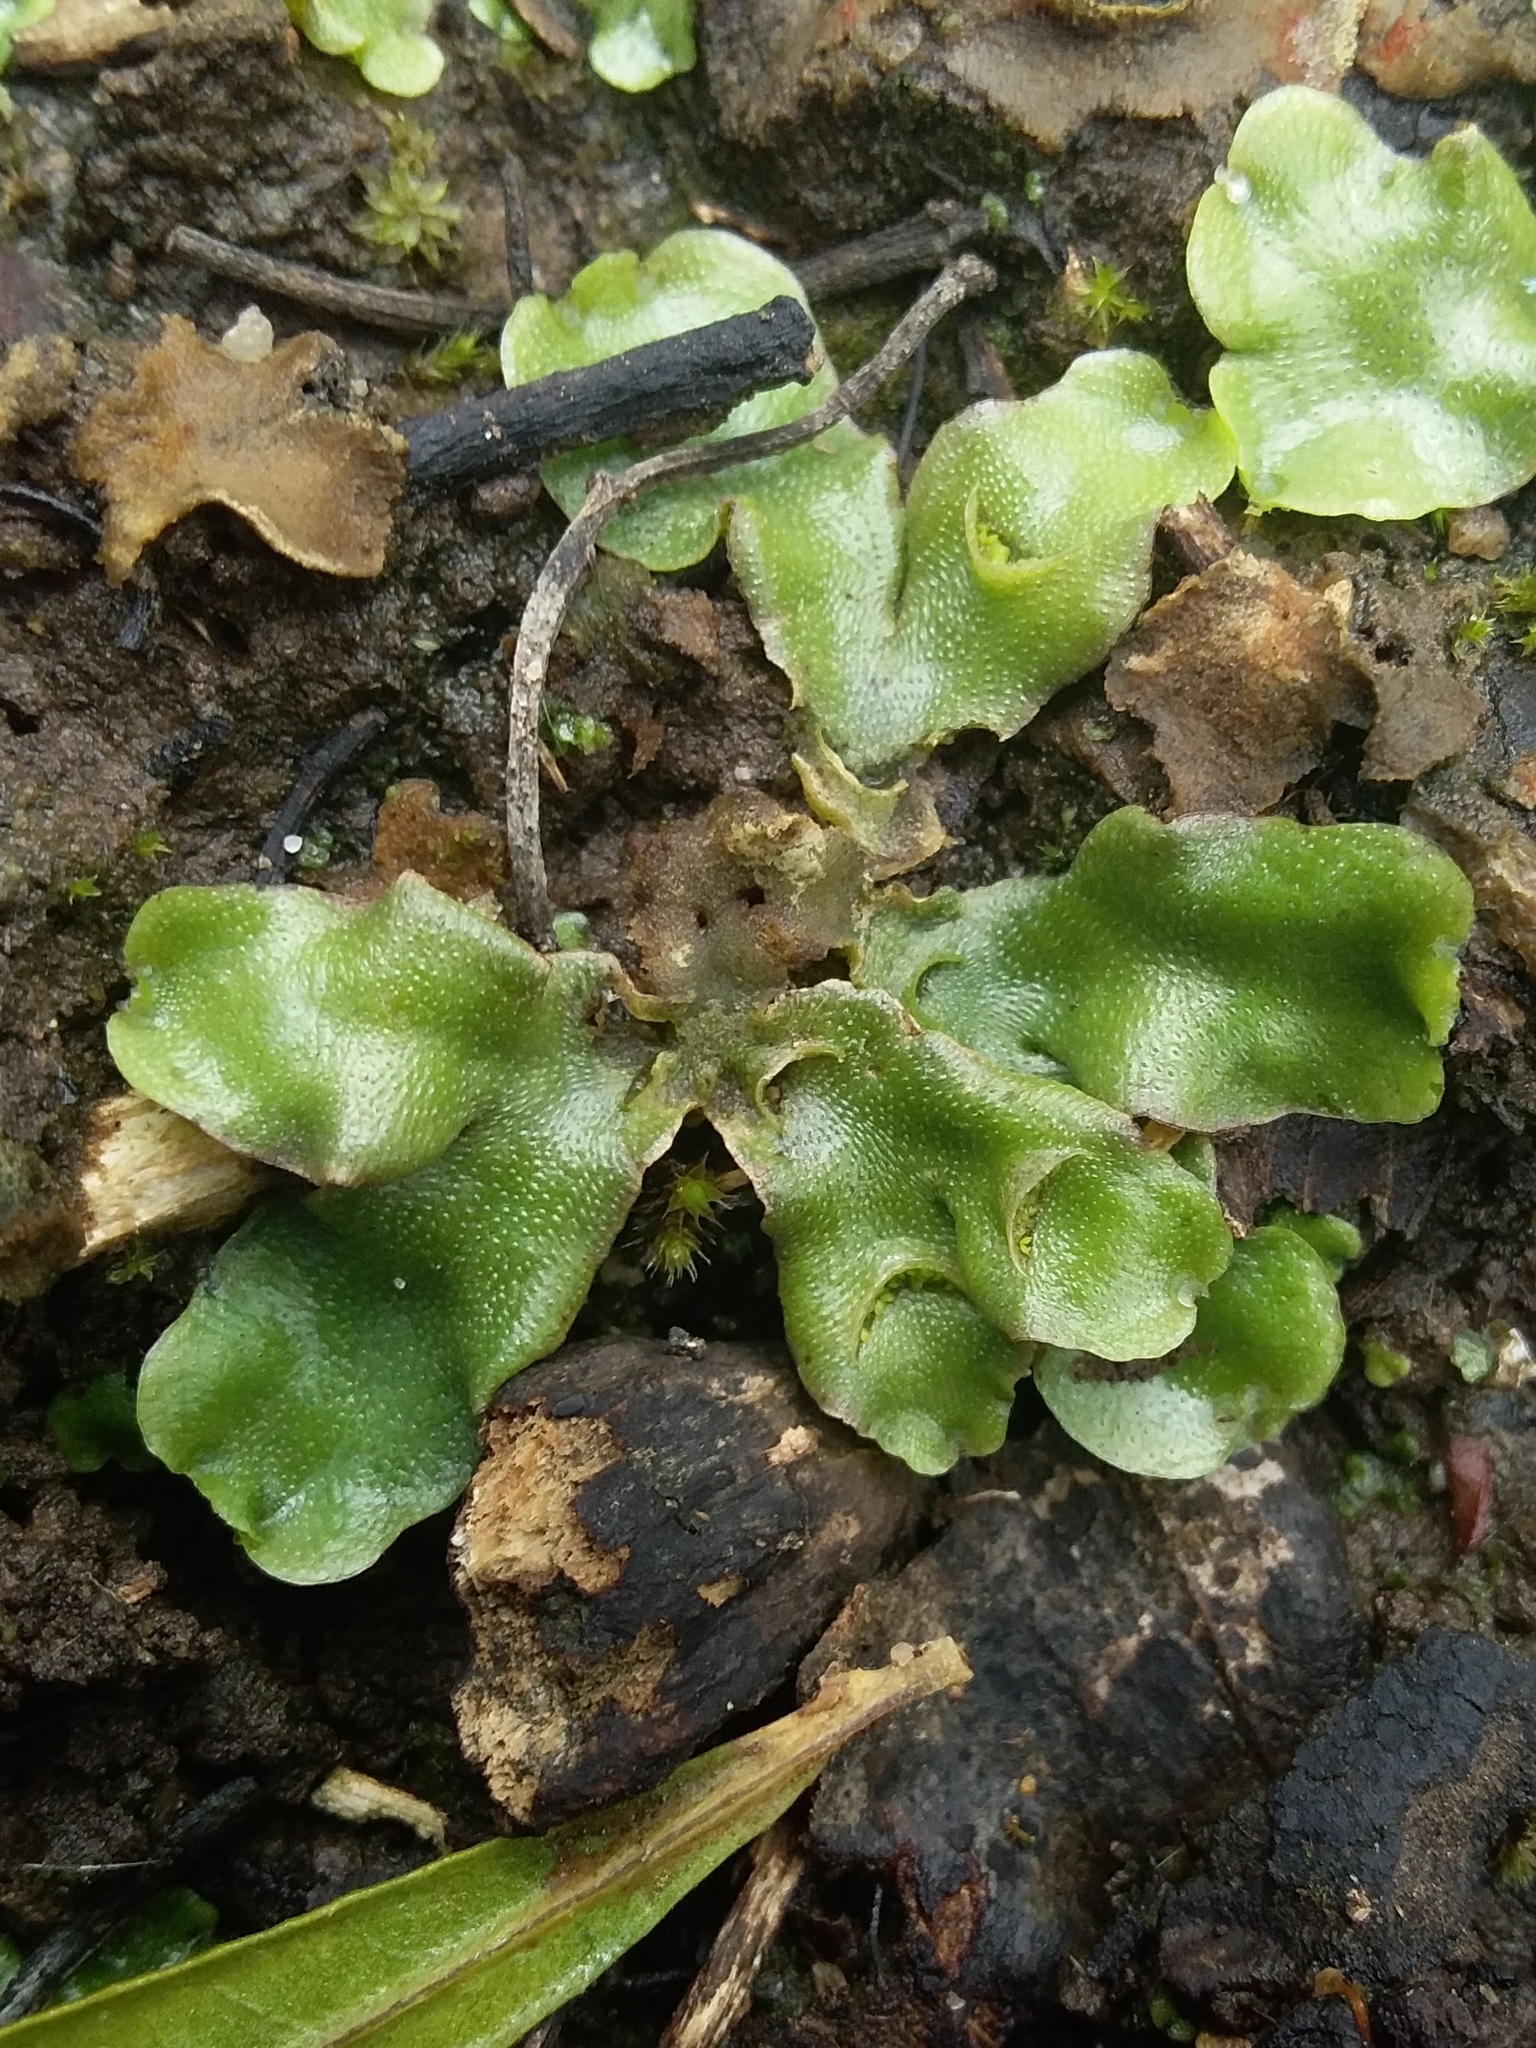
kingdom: Plantae
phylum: Marchantiophyta
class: Marchantiopsida
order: Lunulariales
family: Lunulariaceae
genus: Lunularia
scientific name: Lunularia cruciata
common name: Crescent-cup liverwort
